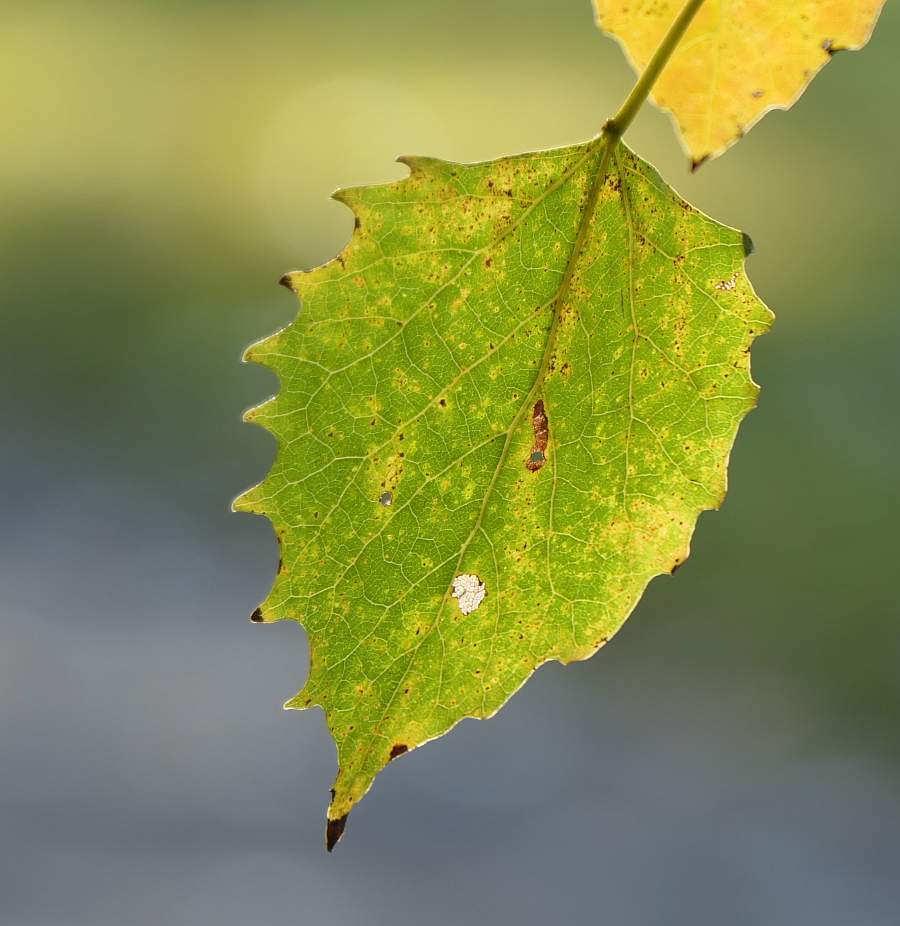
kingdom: Plantae
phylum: Tracheophyta
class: Magnoliopsida
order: Malpighiales
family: Salicaceae
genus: Populus
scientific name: Populus grandidentata
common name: Bigtooth aspen
